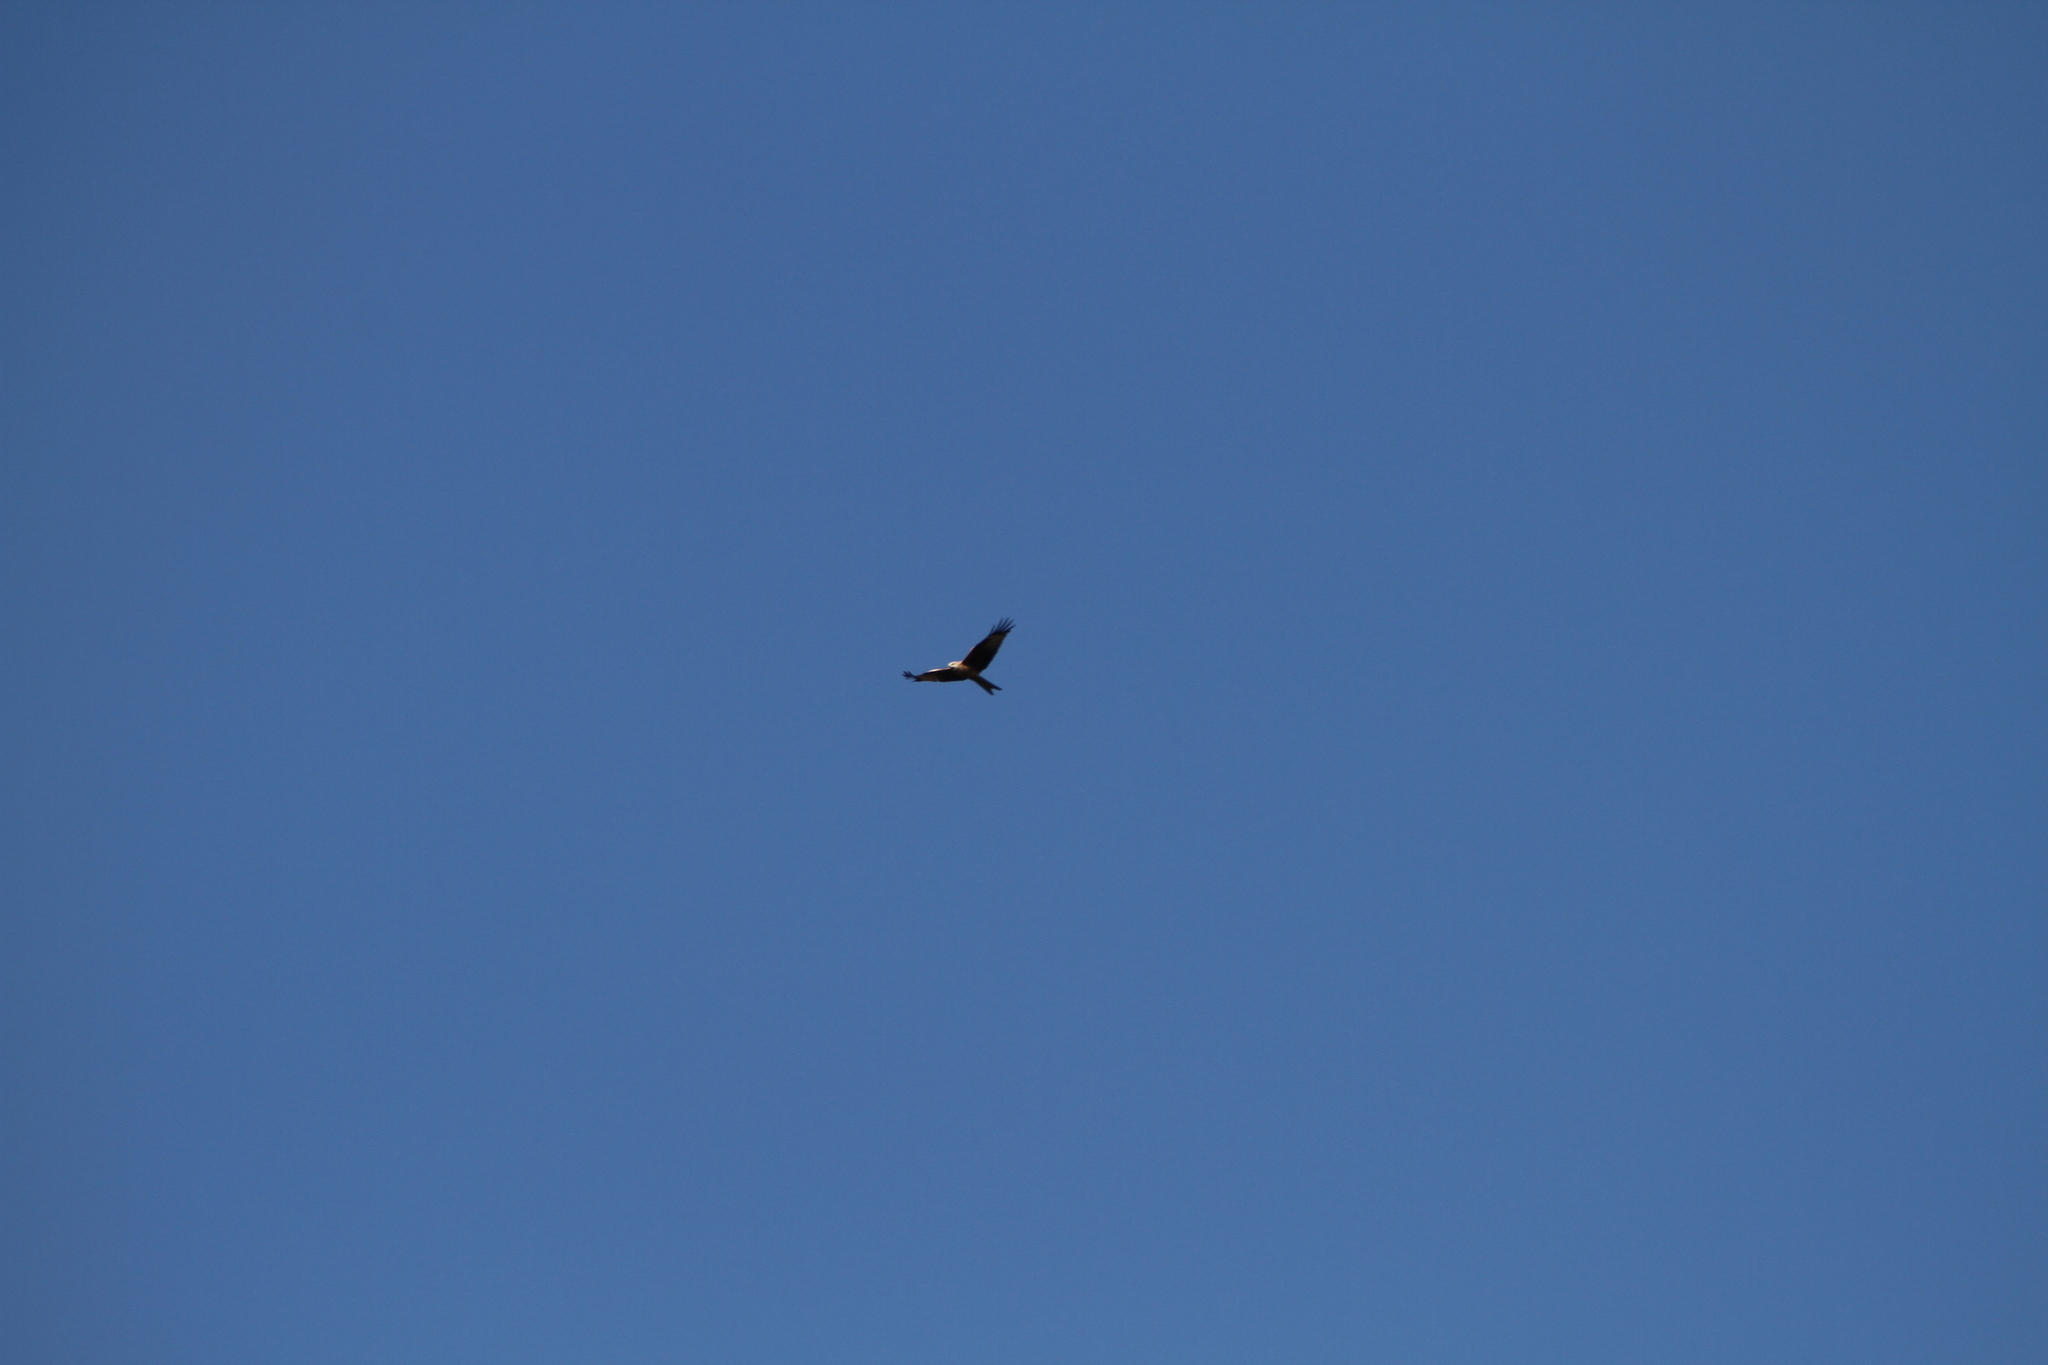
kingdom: Animalia
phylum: Chordata
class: Aves
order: Accipitriformes
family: Accipitridae
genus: Milvus
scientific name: Milvus milvus
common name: Red kite
